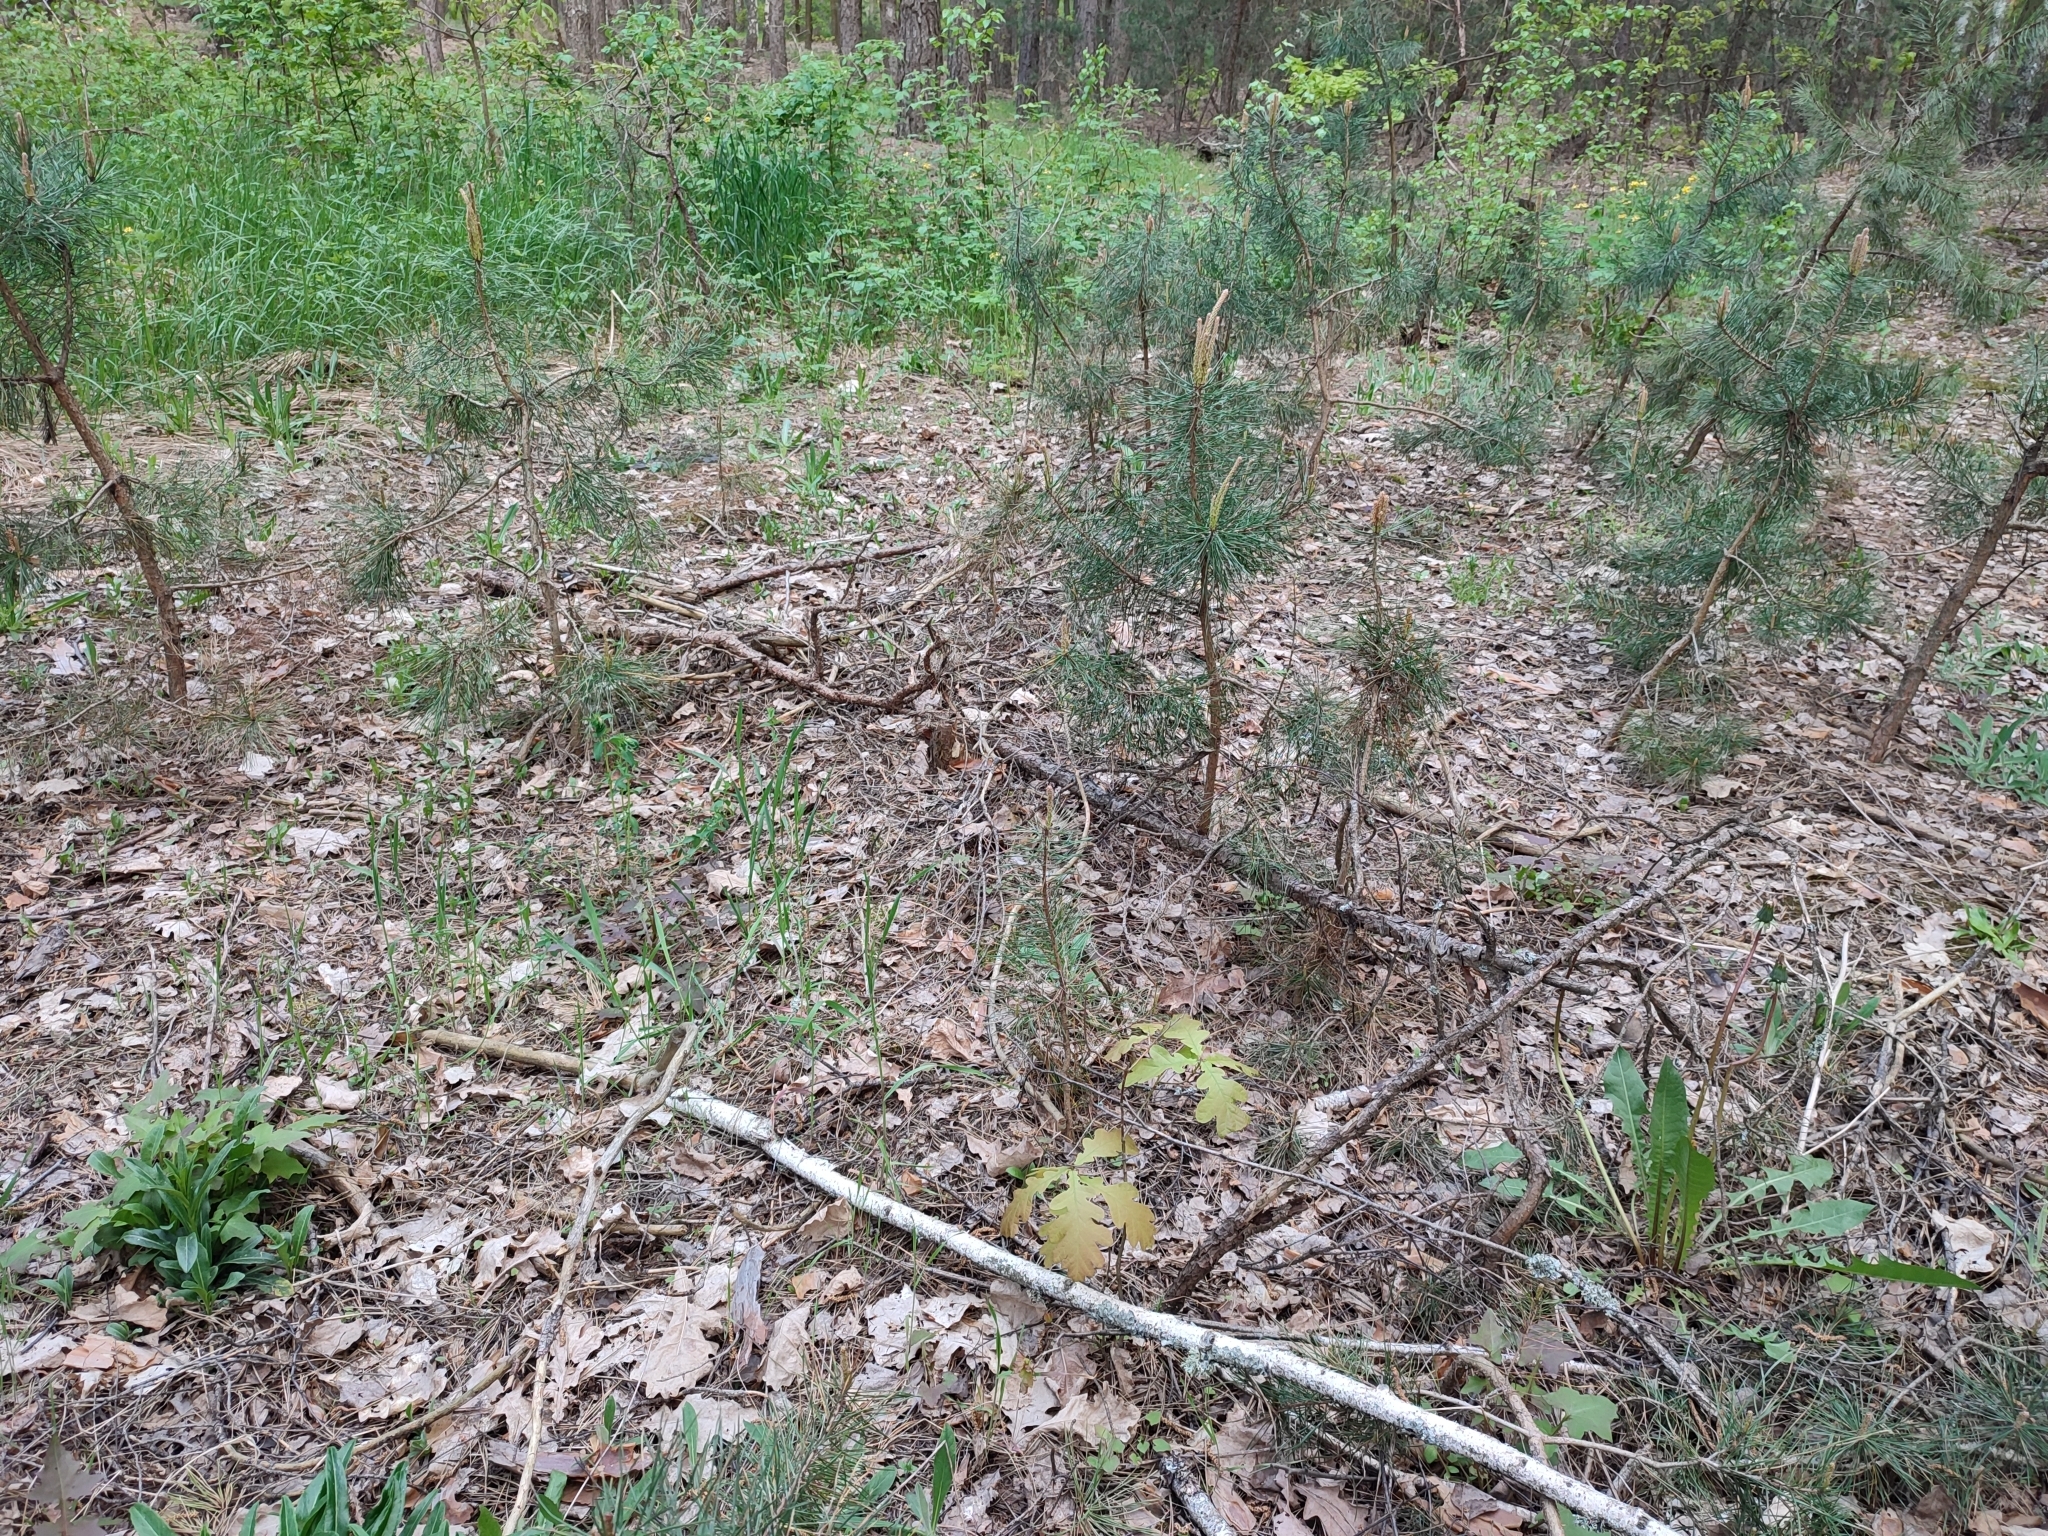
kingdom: Plantae
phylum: Tracheophyta
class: Magnoliopsida
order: Fagales
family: Fagaceae
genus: Quercus
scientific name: Quercus robur
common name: Pedunculate oak
